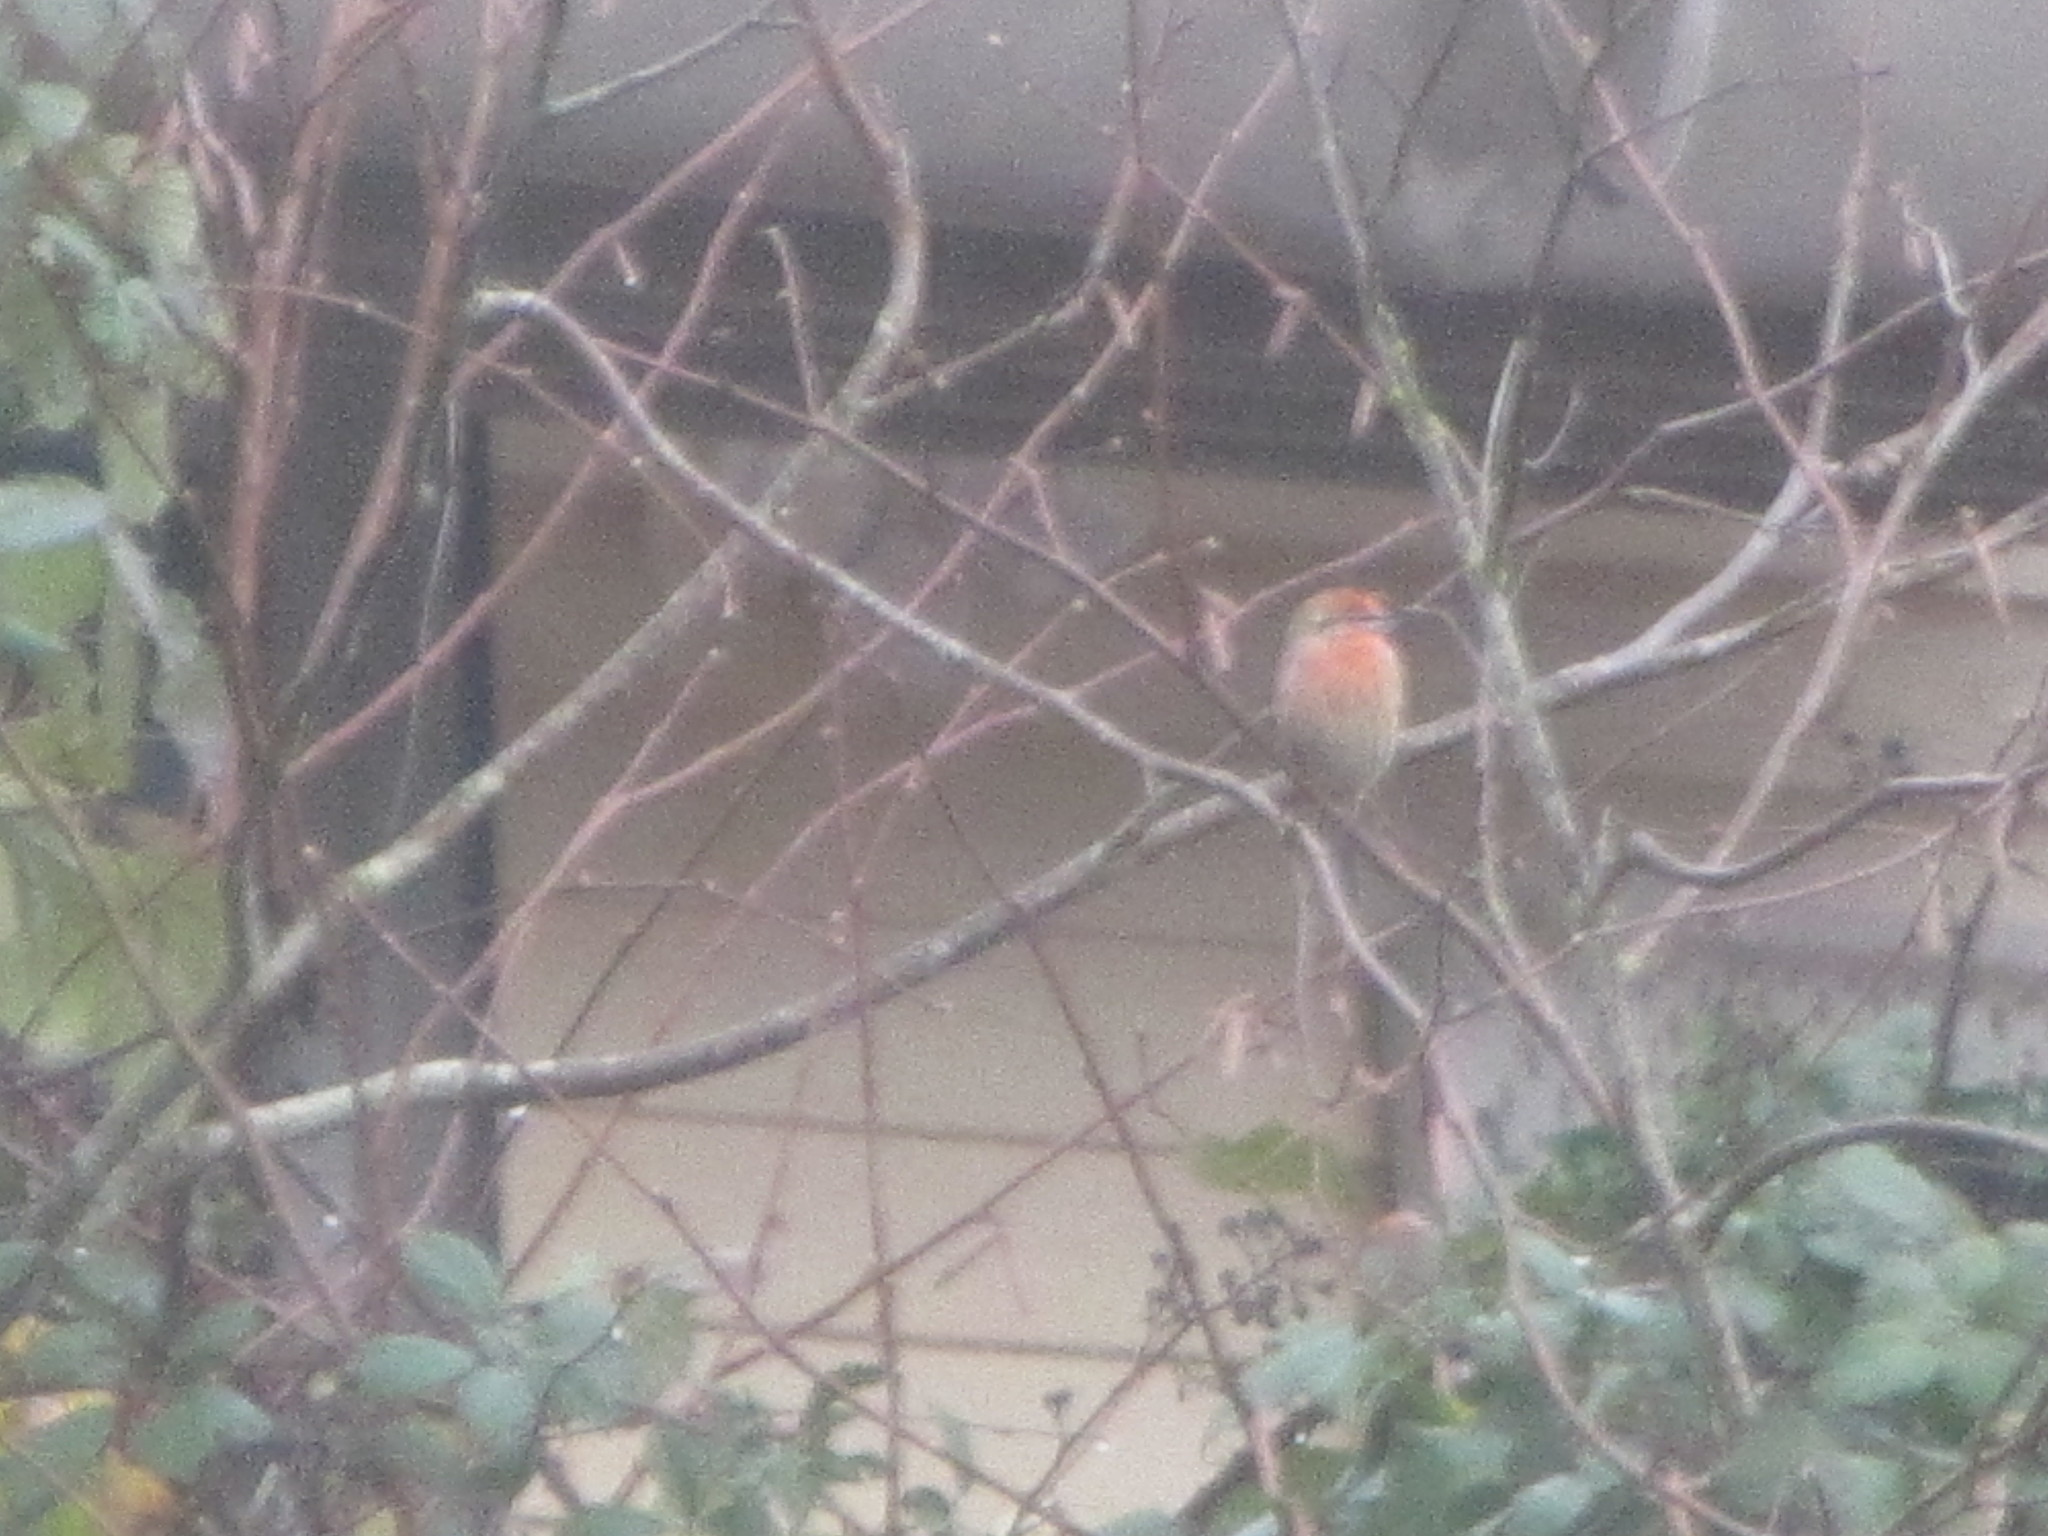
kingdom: Animalia
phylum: Chordata
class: Aves
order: Passeriformes
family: Fringillidae
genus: Haemorhous
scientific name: Haemorhous mexicanus
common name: House finch
